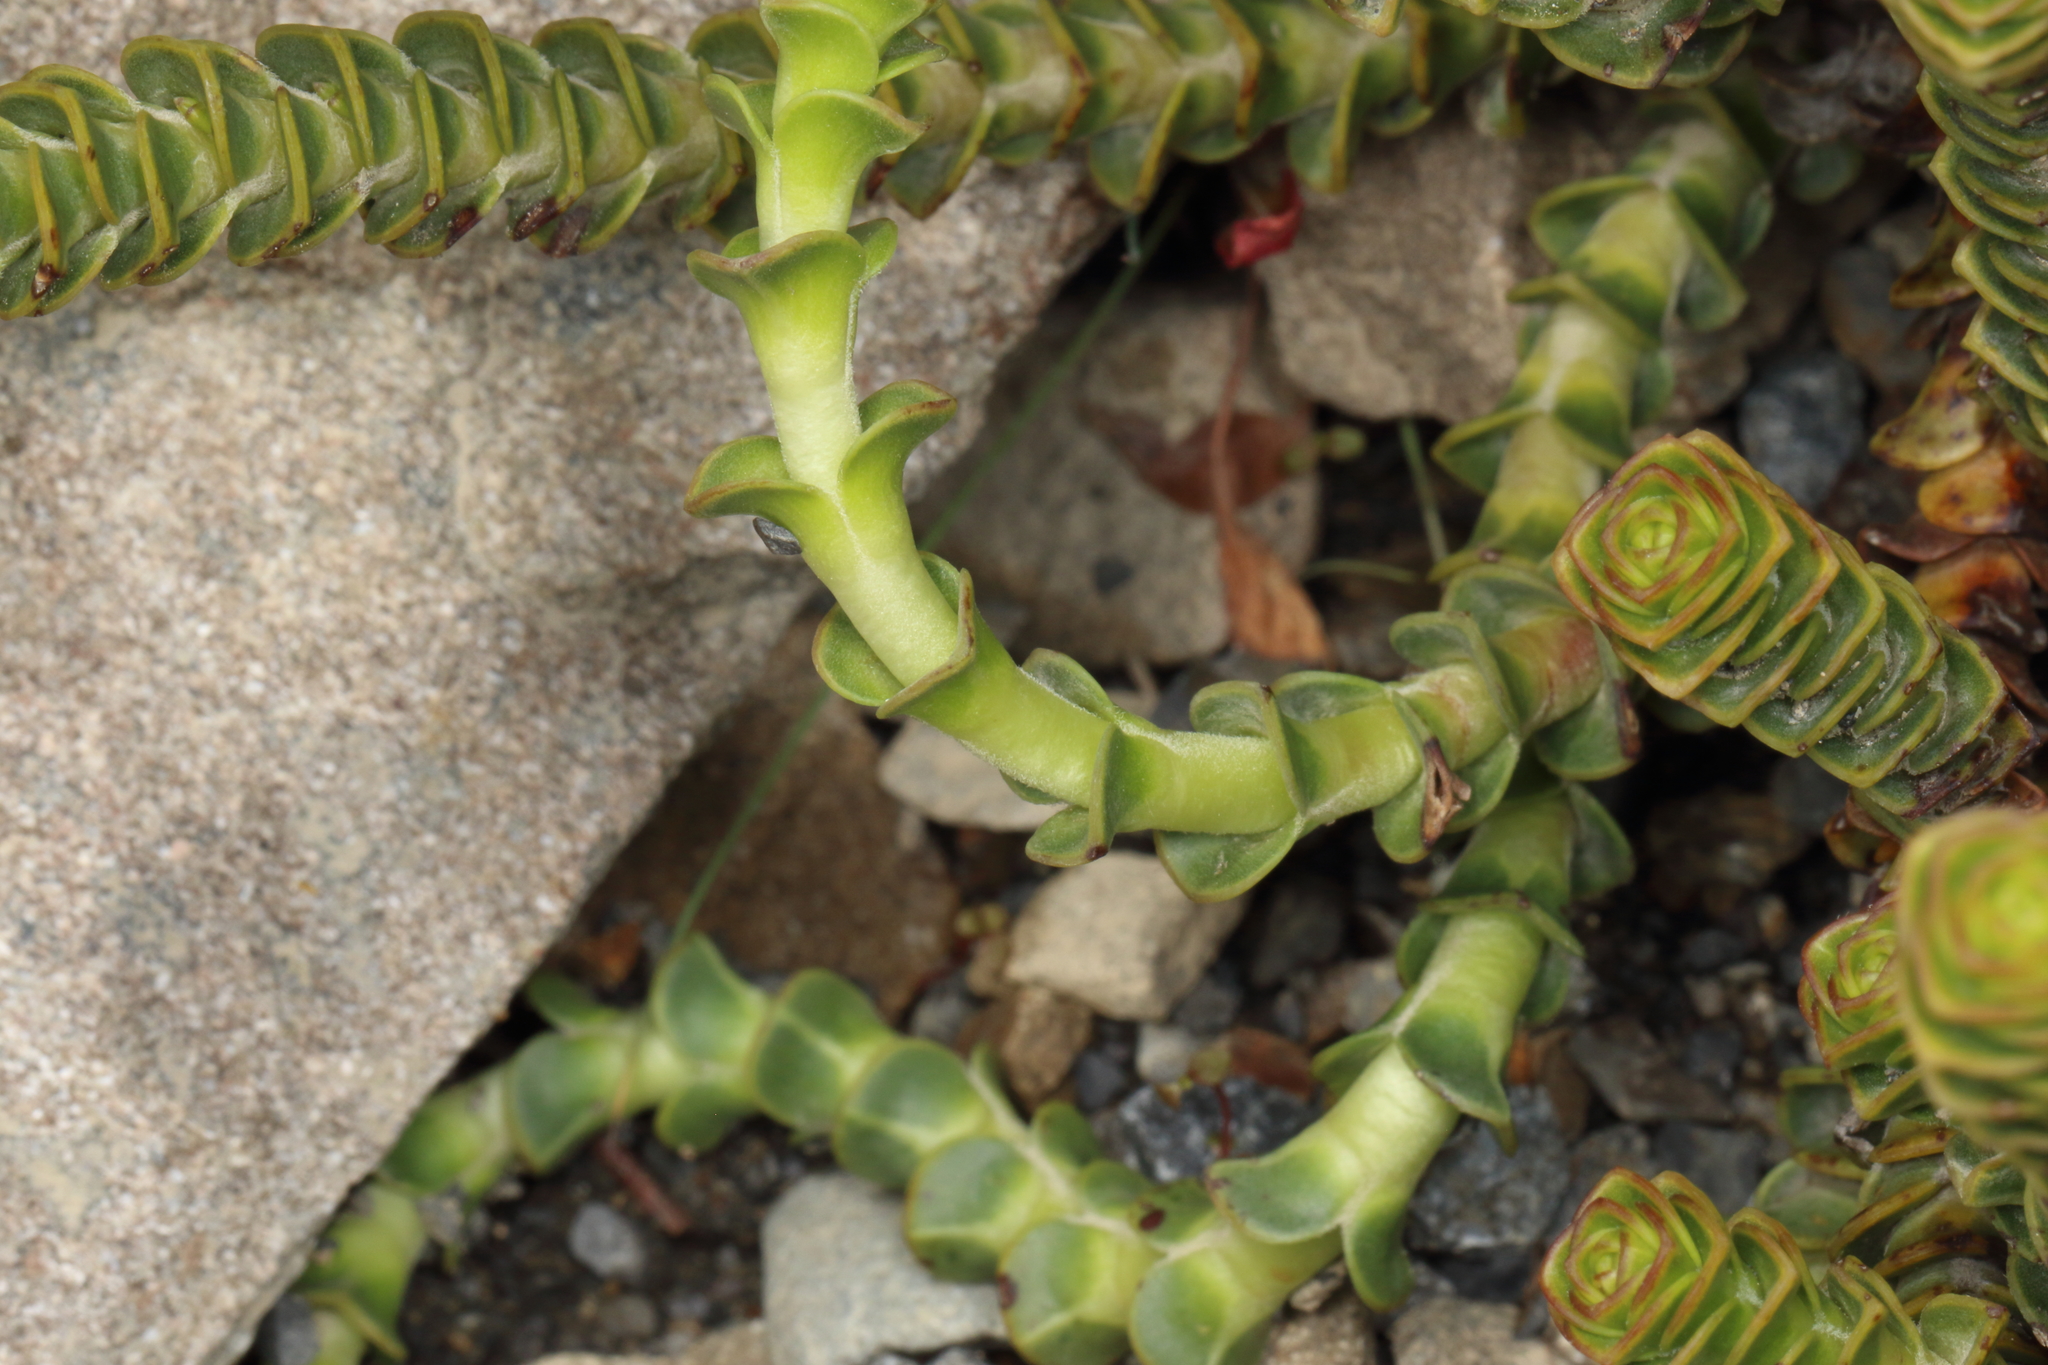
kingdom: Plantae
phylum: Tracheophyta
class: Magnoliopsida
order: Lamiales
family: Plantaginaceae
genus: Veronica
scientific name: Veronica epacridea
